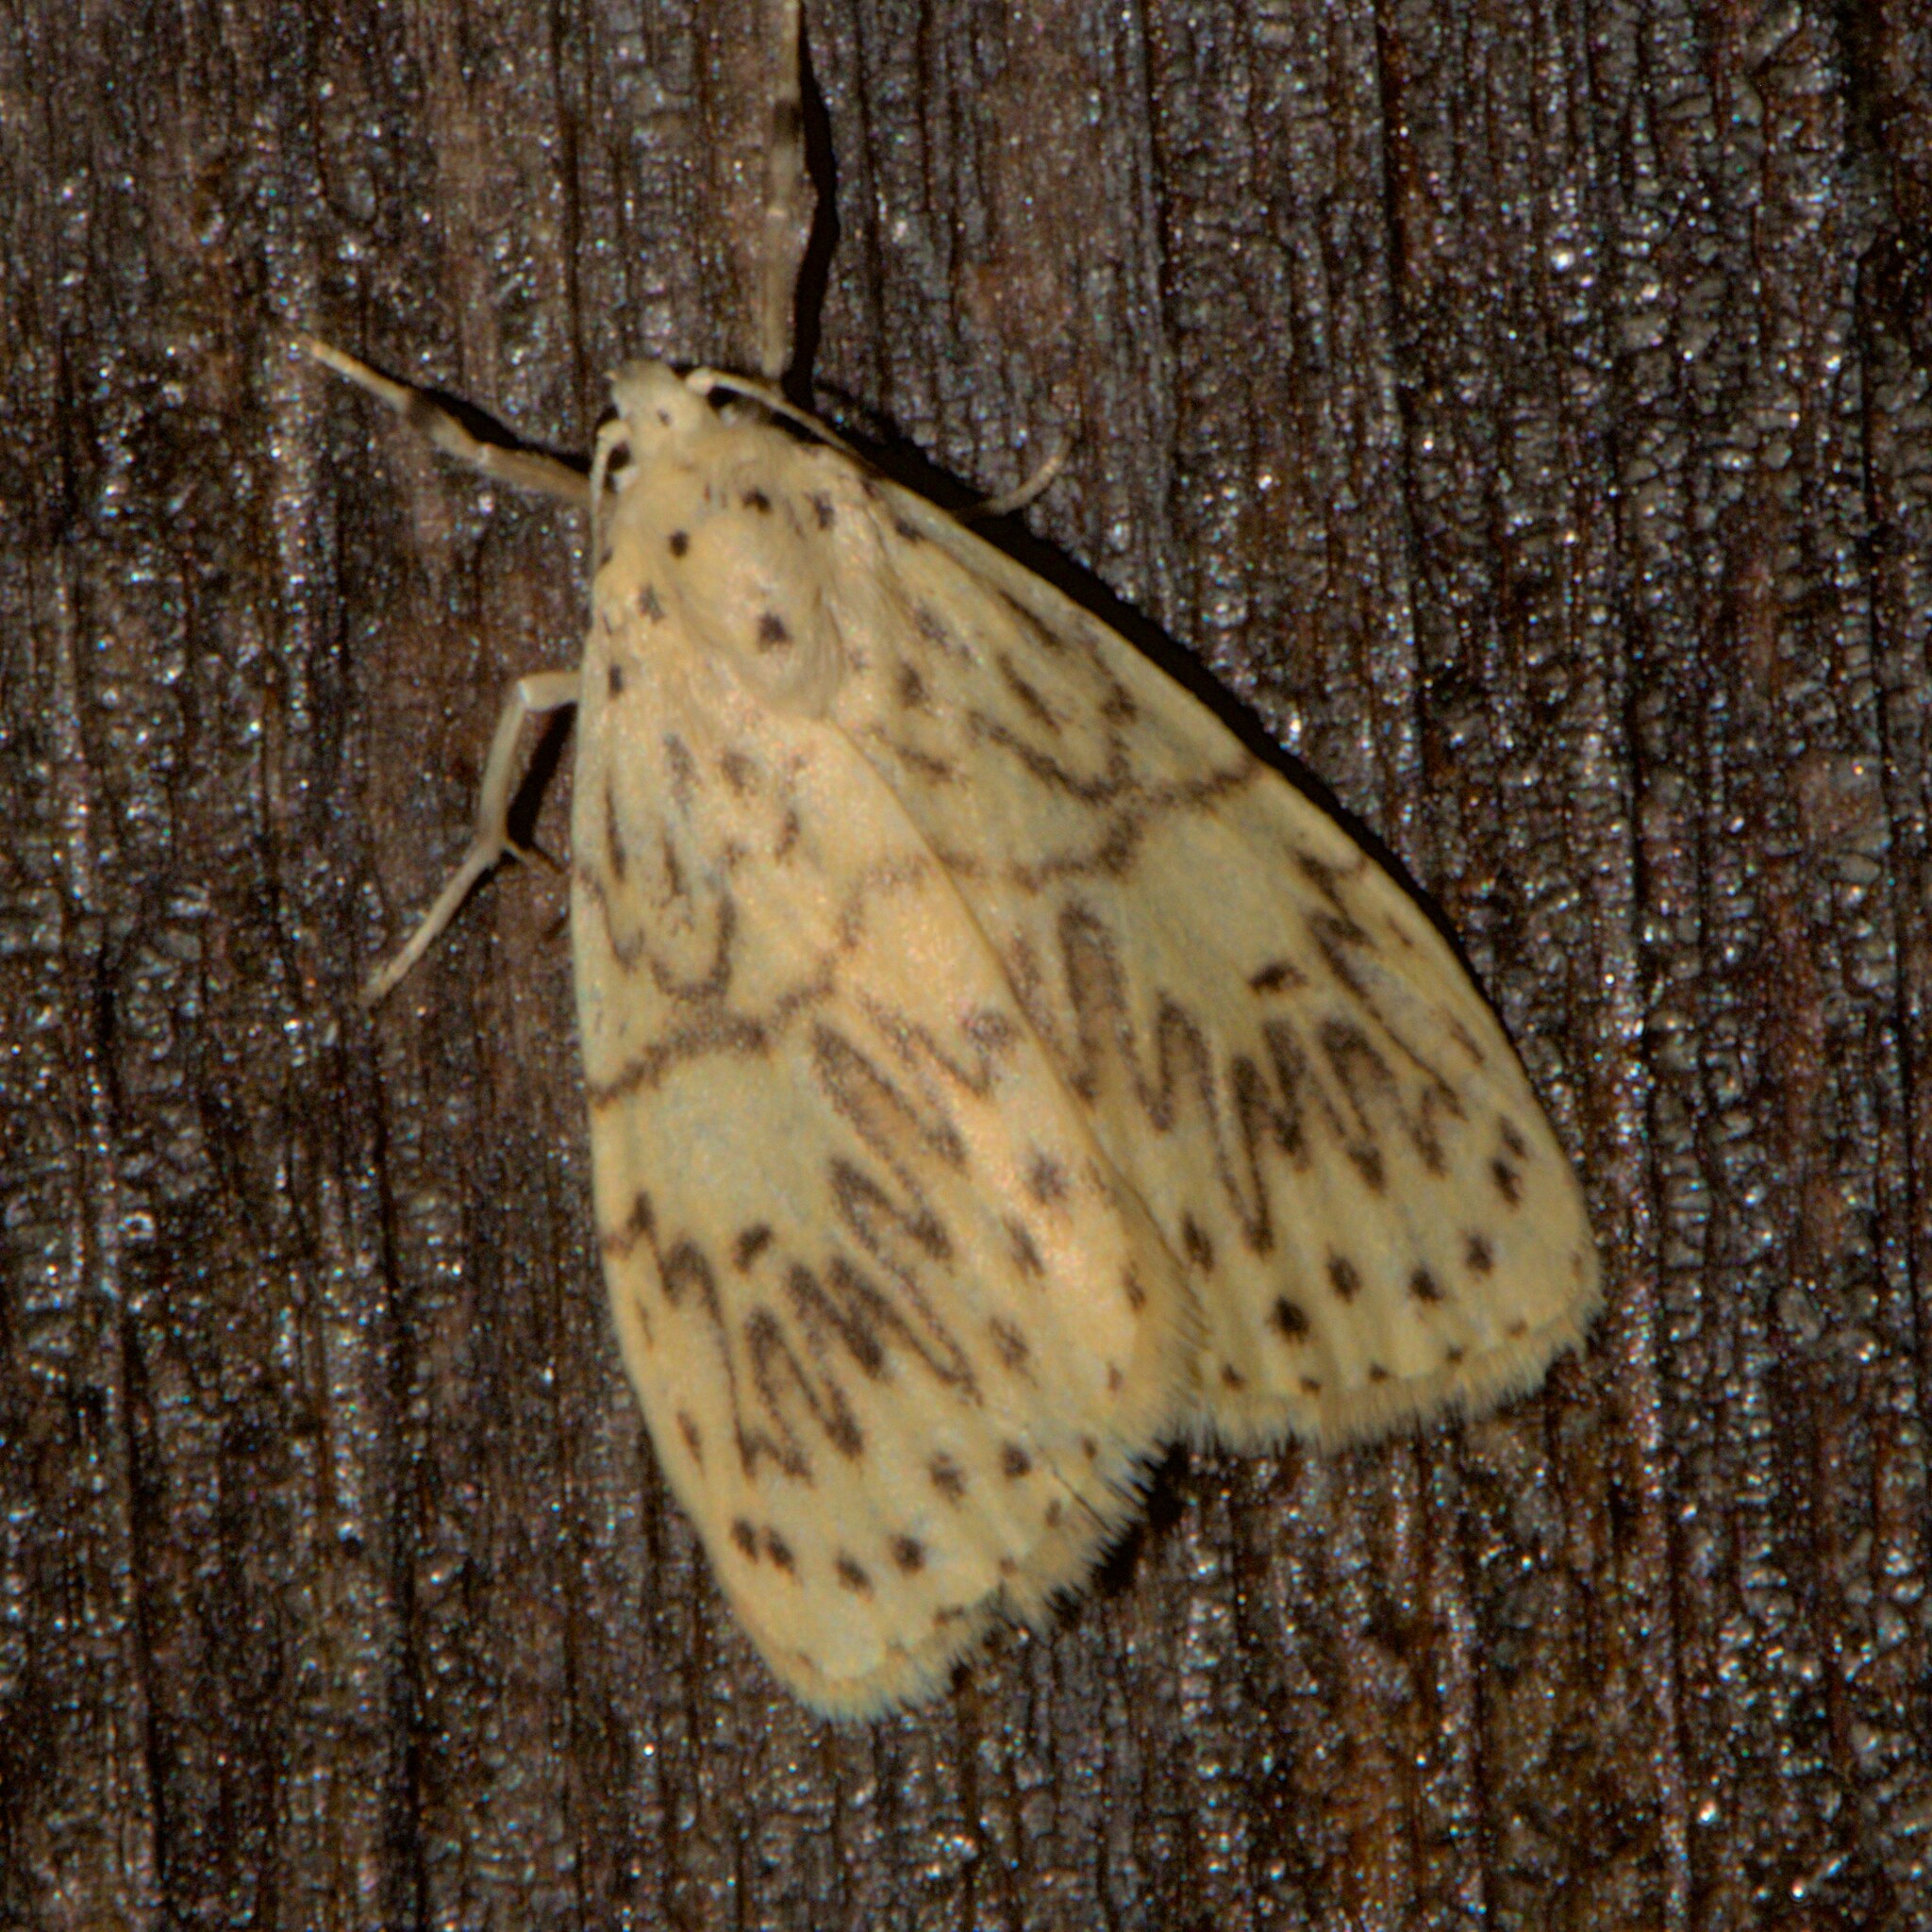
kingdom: Animalia
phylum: Arthropoda
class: Insecta
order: Lepidoptera
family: Erebidae
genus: Miltochrista
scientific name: Miltochrista undulosa
